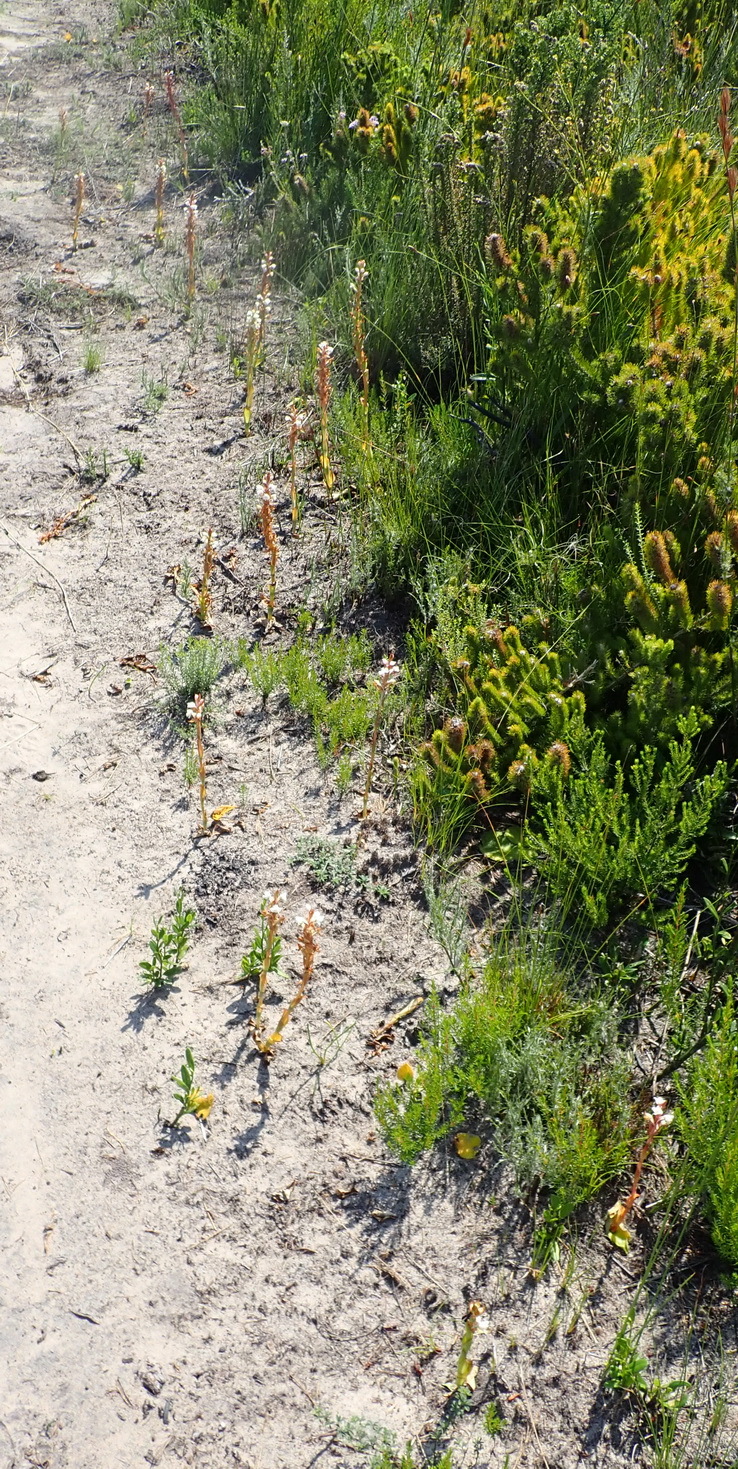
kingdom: Plantae
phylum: Tracheophyta
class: Liliopsida
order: Asparagales
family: Orchidaceae
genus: Satyrium
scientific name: Satyrium acuminatum
